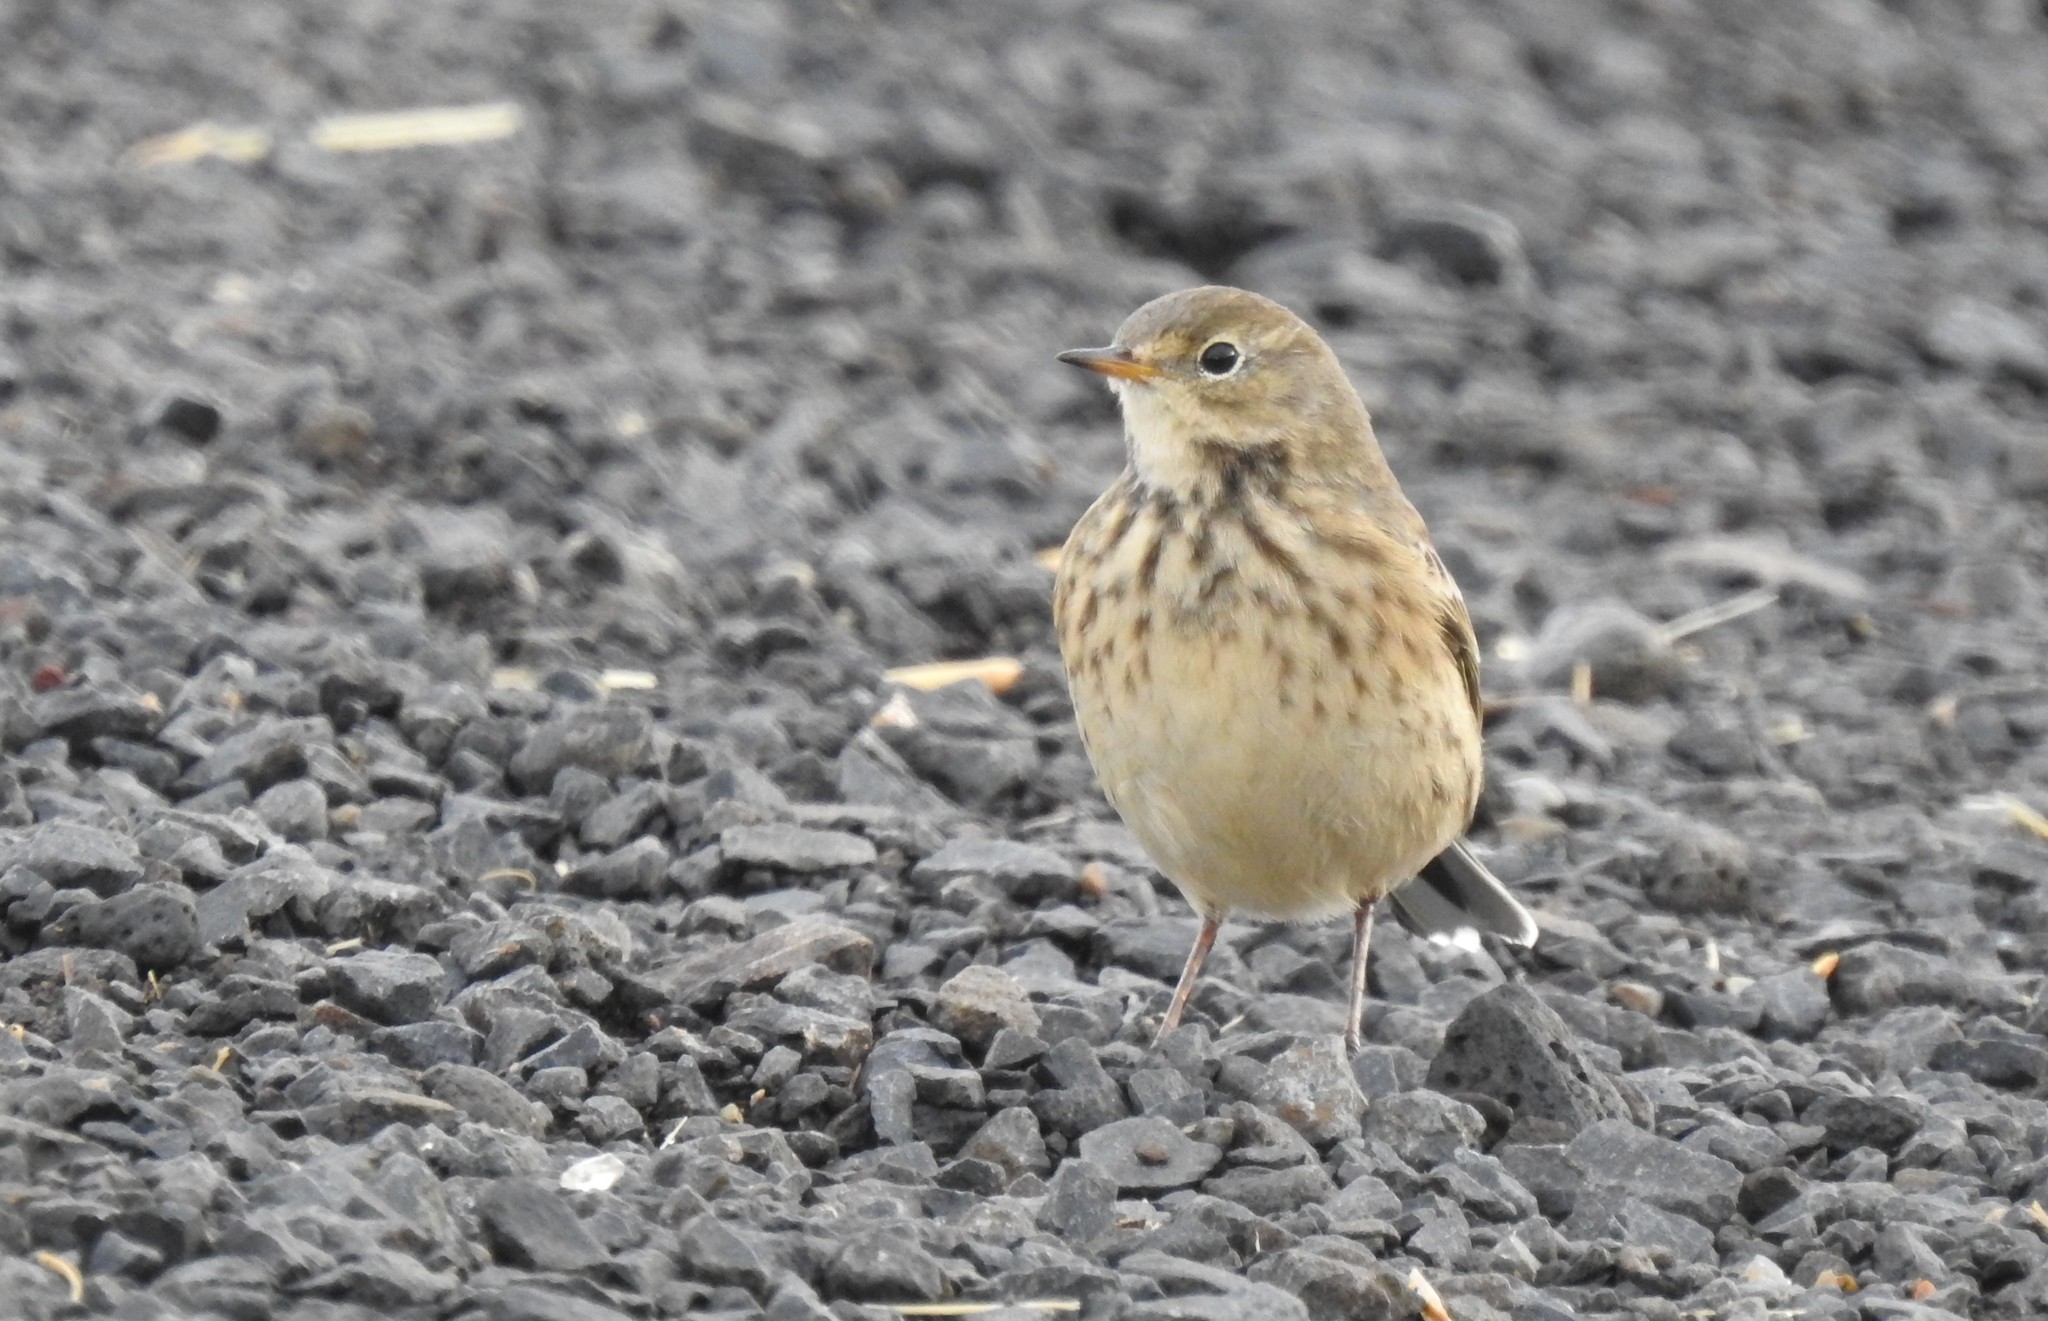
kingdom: Animalia
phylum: Chordata
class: Aves
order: Passeriformes
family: Motacillidae
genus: Anthus
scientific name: Anthus rubescens
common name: Buff-bellied pipit
